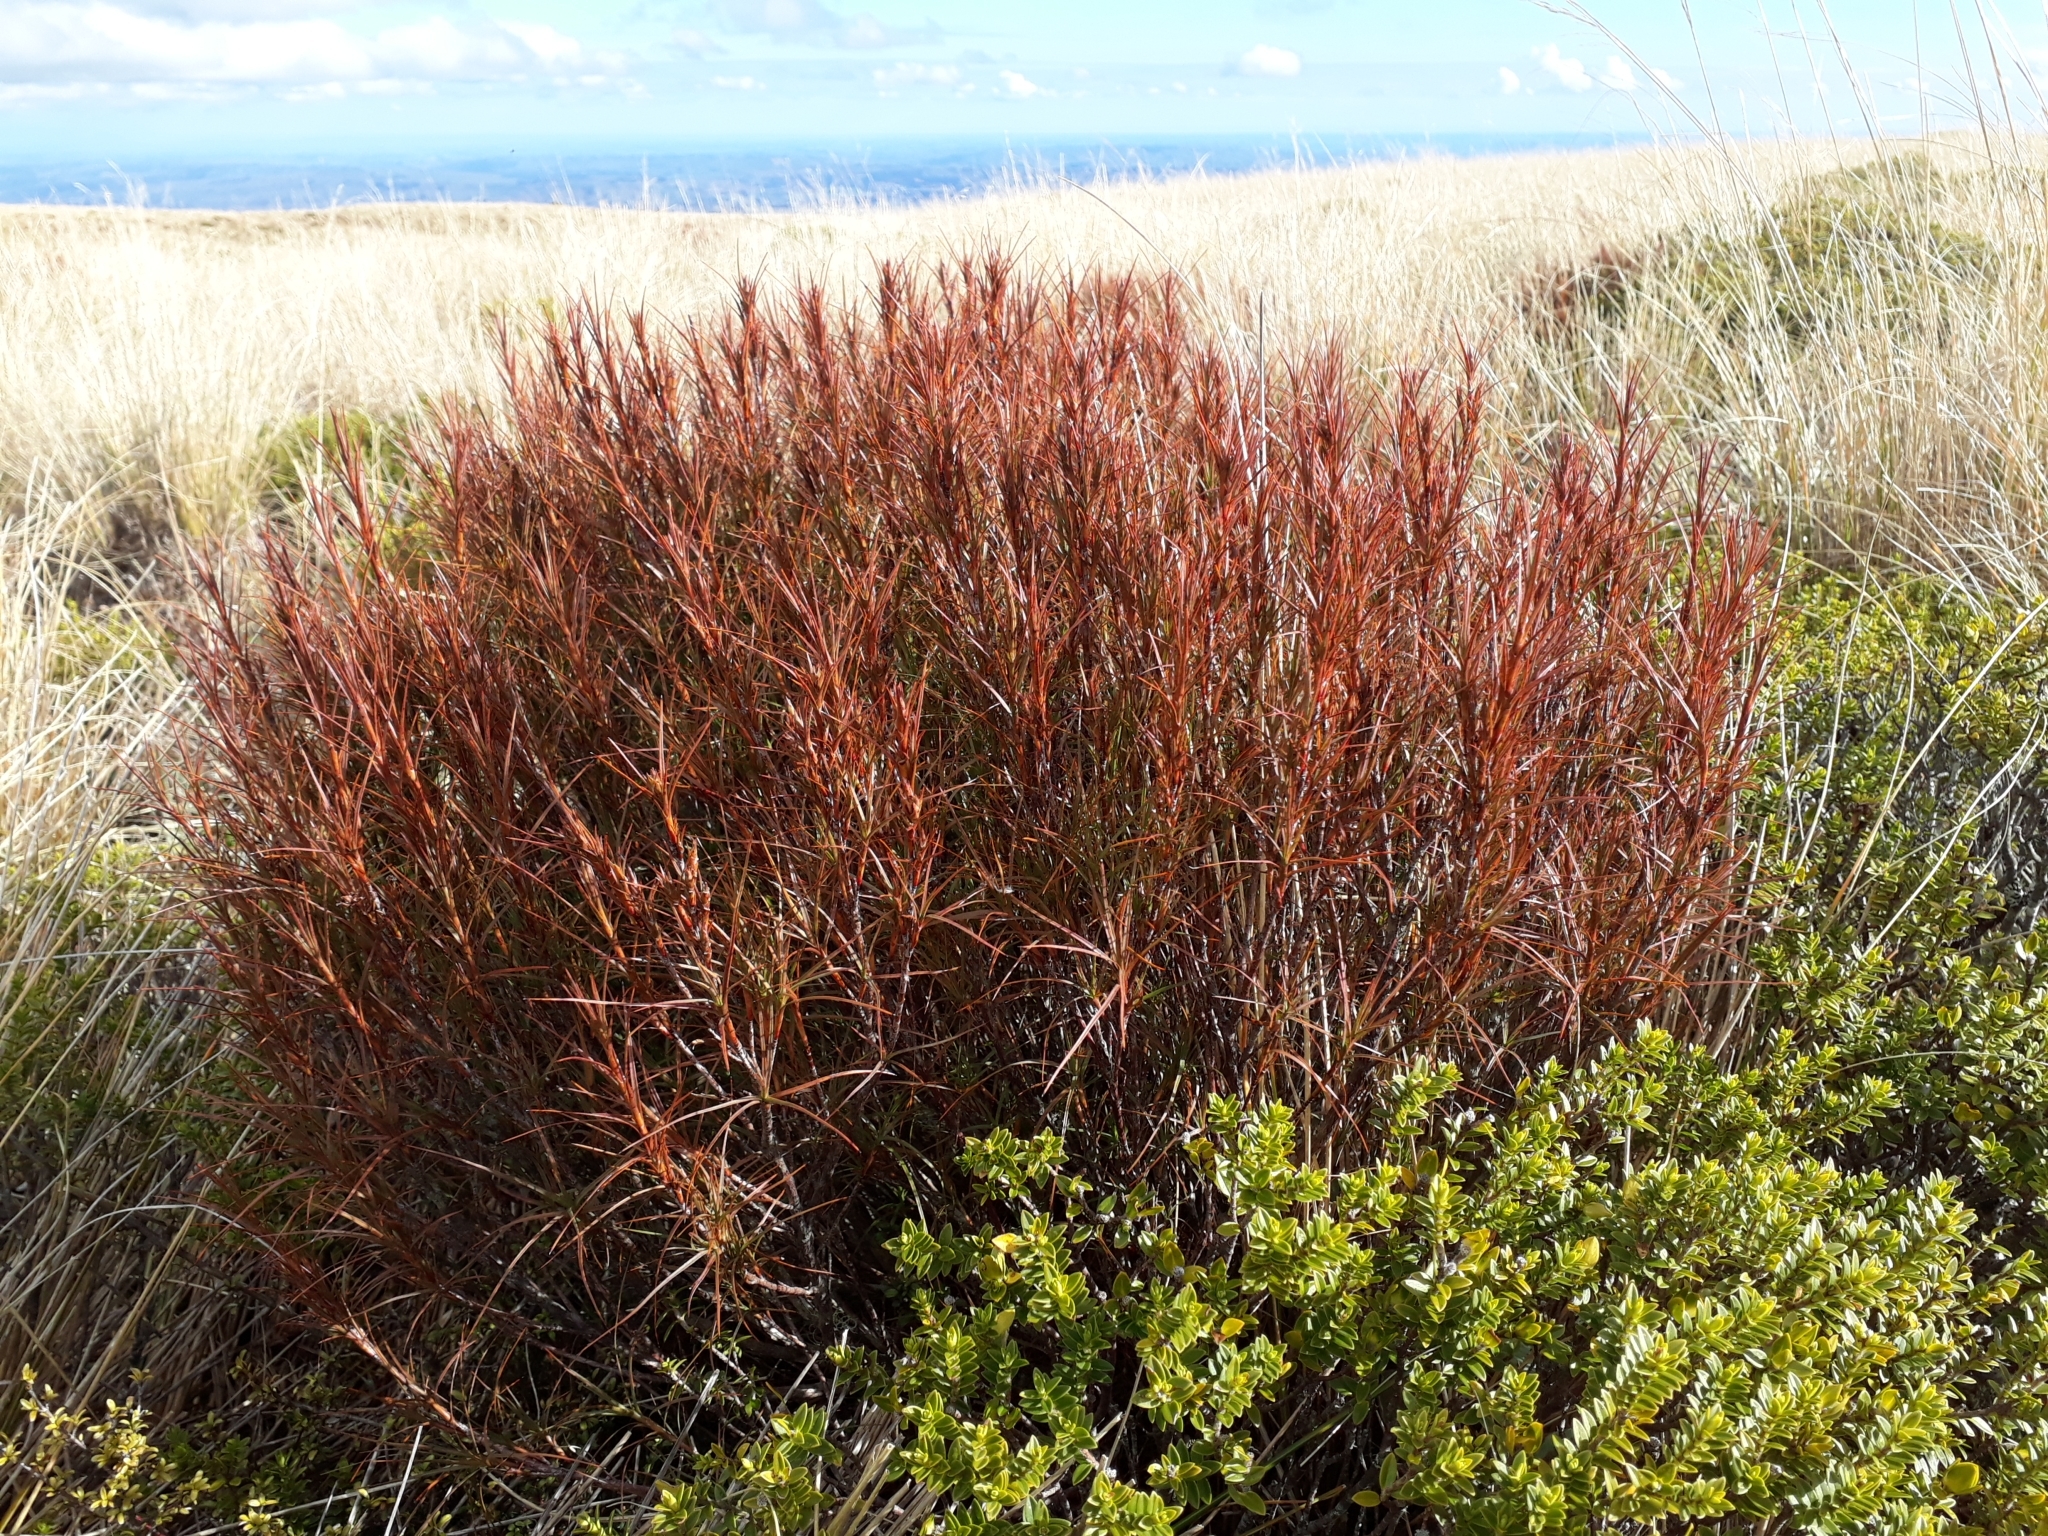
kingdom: Plantae
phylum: Tracheophyta
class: Magnoliopsida
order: Ericales
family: Ericaceae
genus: Dracophyllum
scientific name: Dracophyllum
